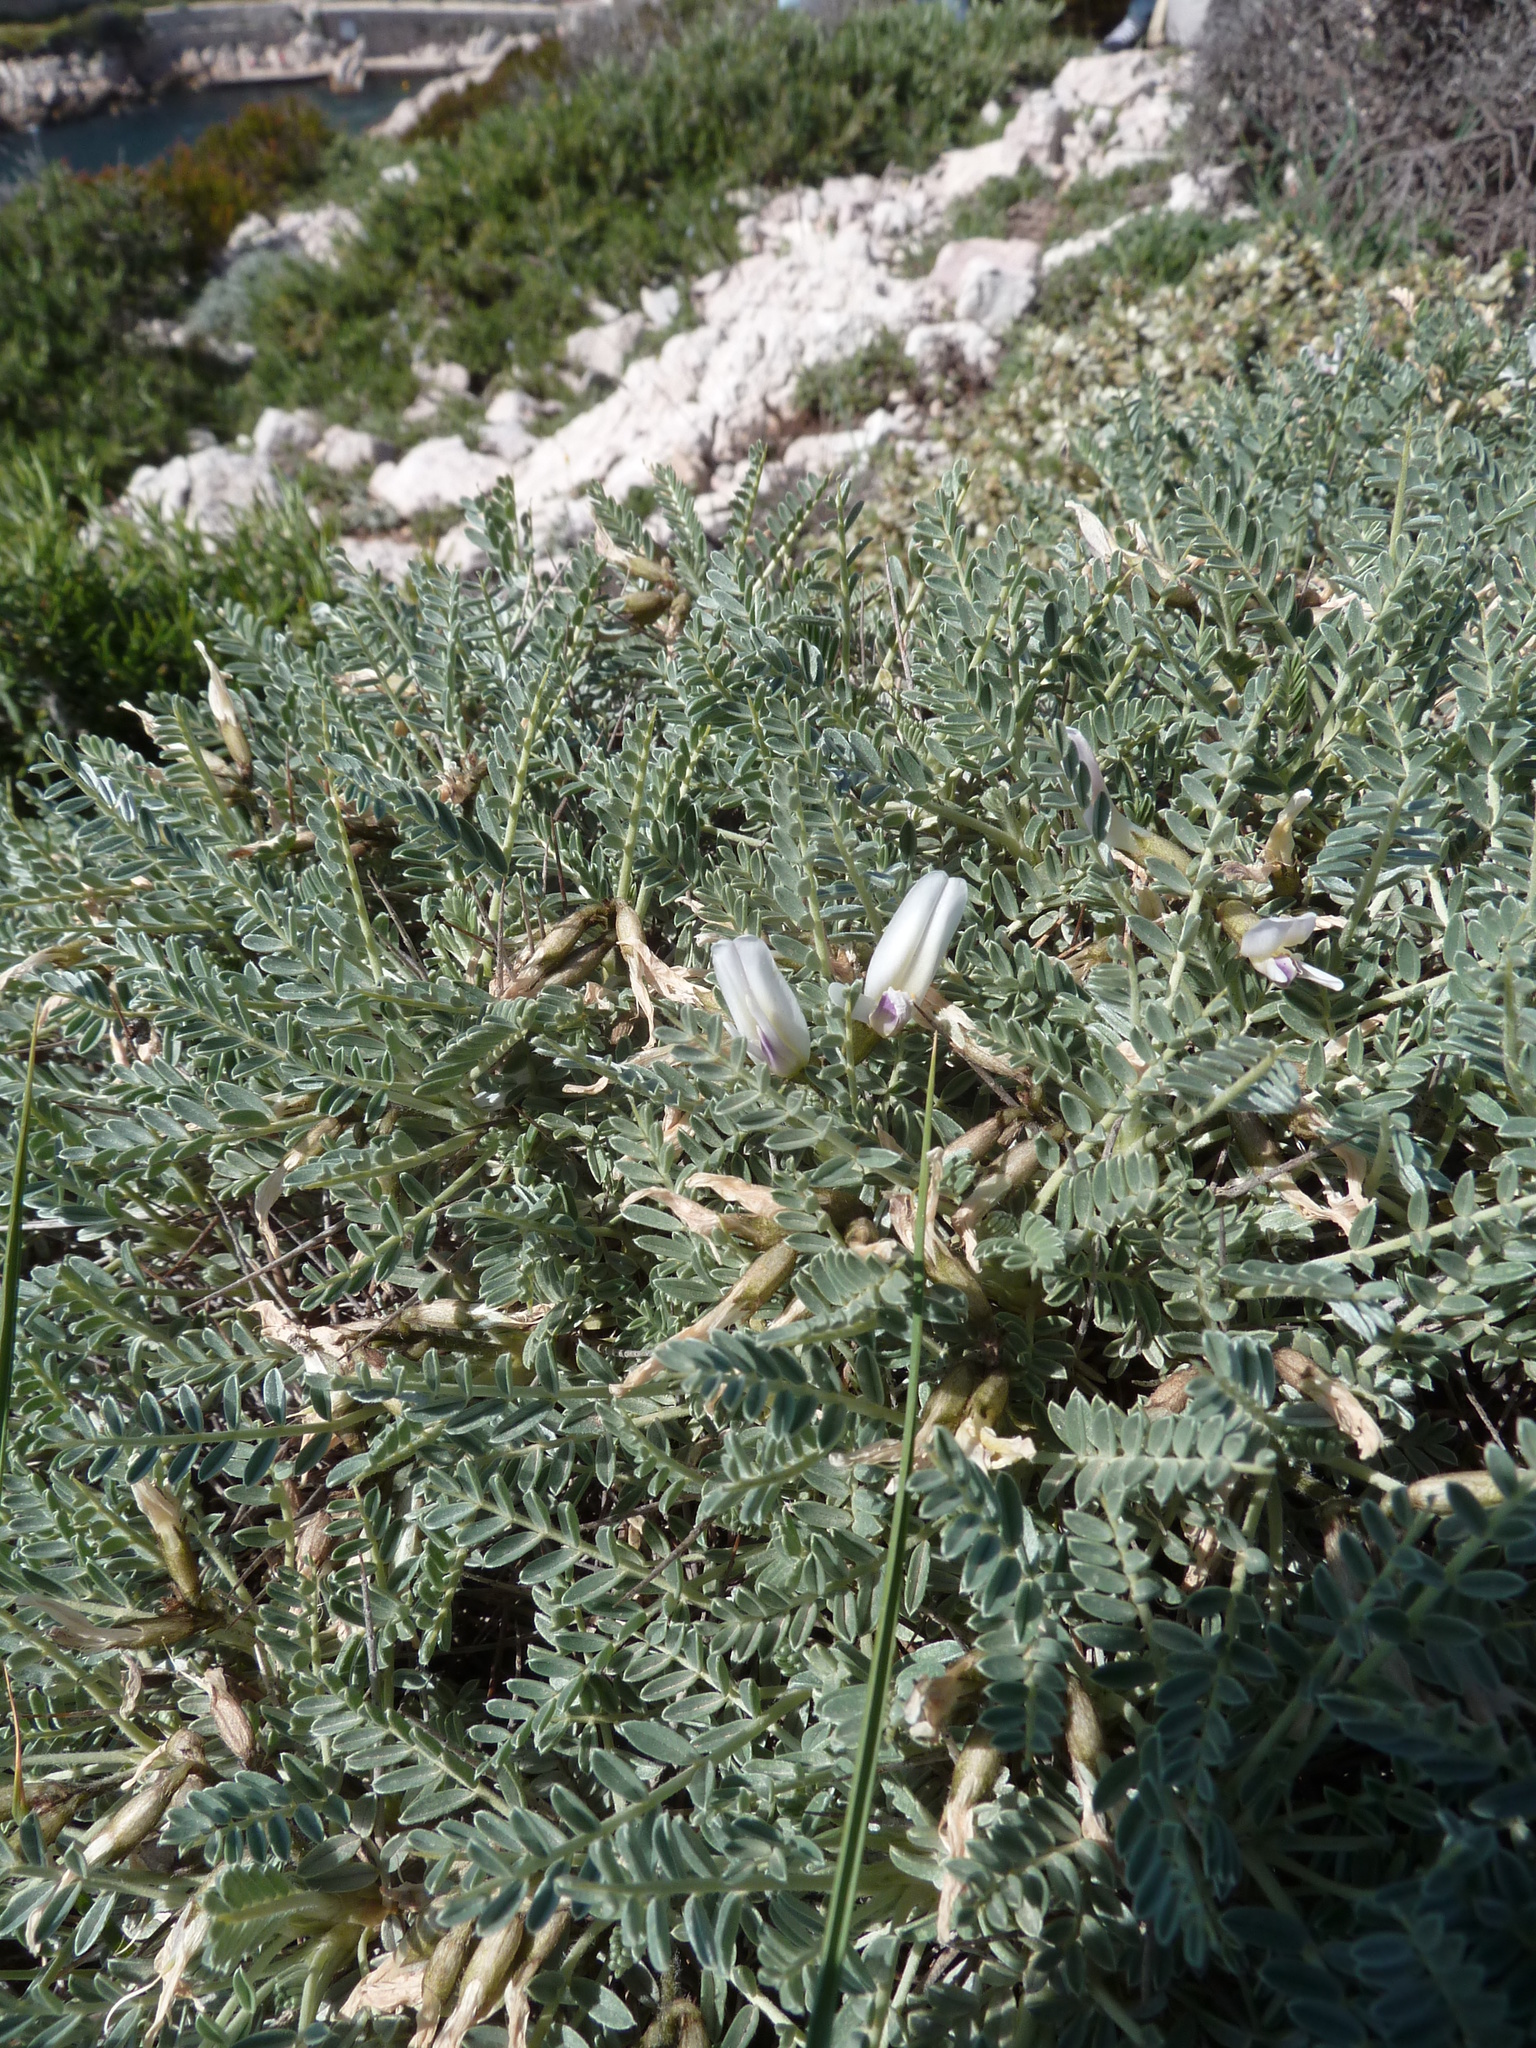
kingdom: Plantae
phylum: Tracheophyta
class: Magnoliopsida
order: Fabales
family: Fabaceae
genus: Astragalus
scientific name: Astragalus tragacantha
